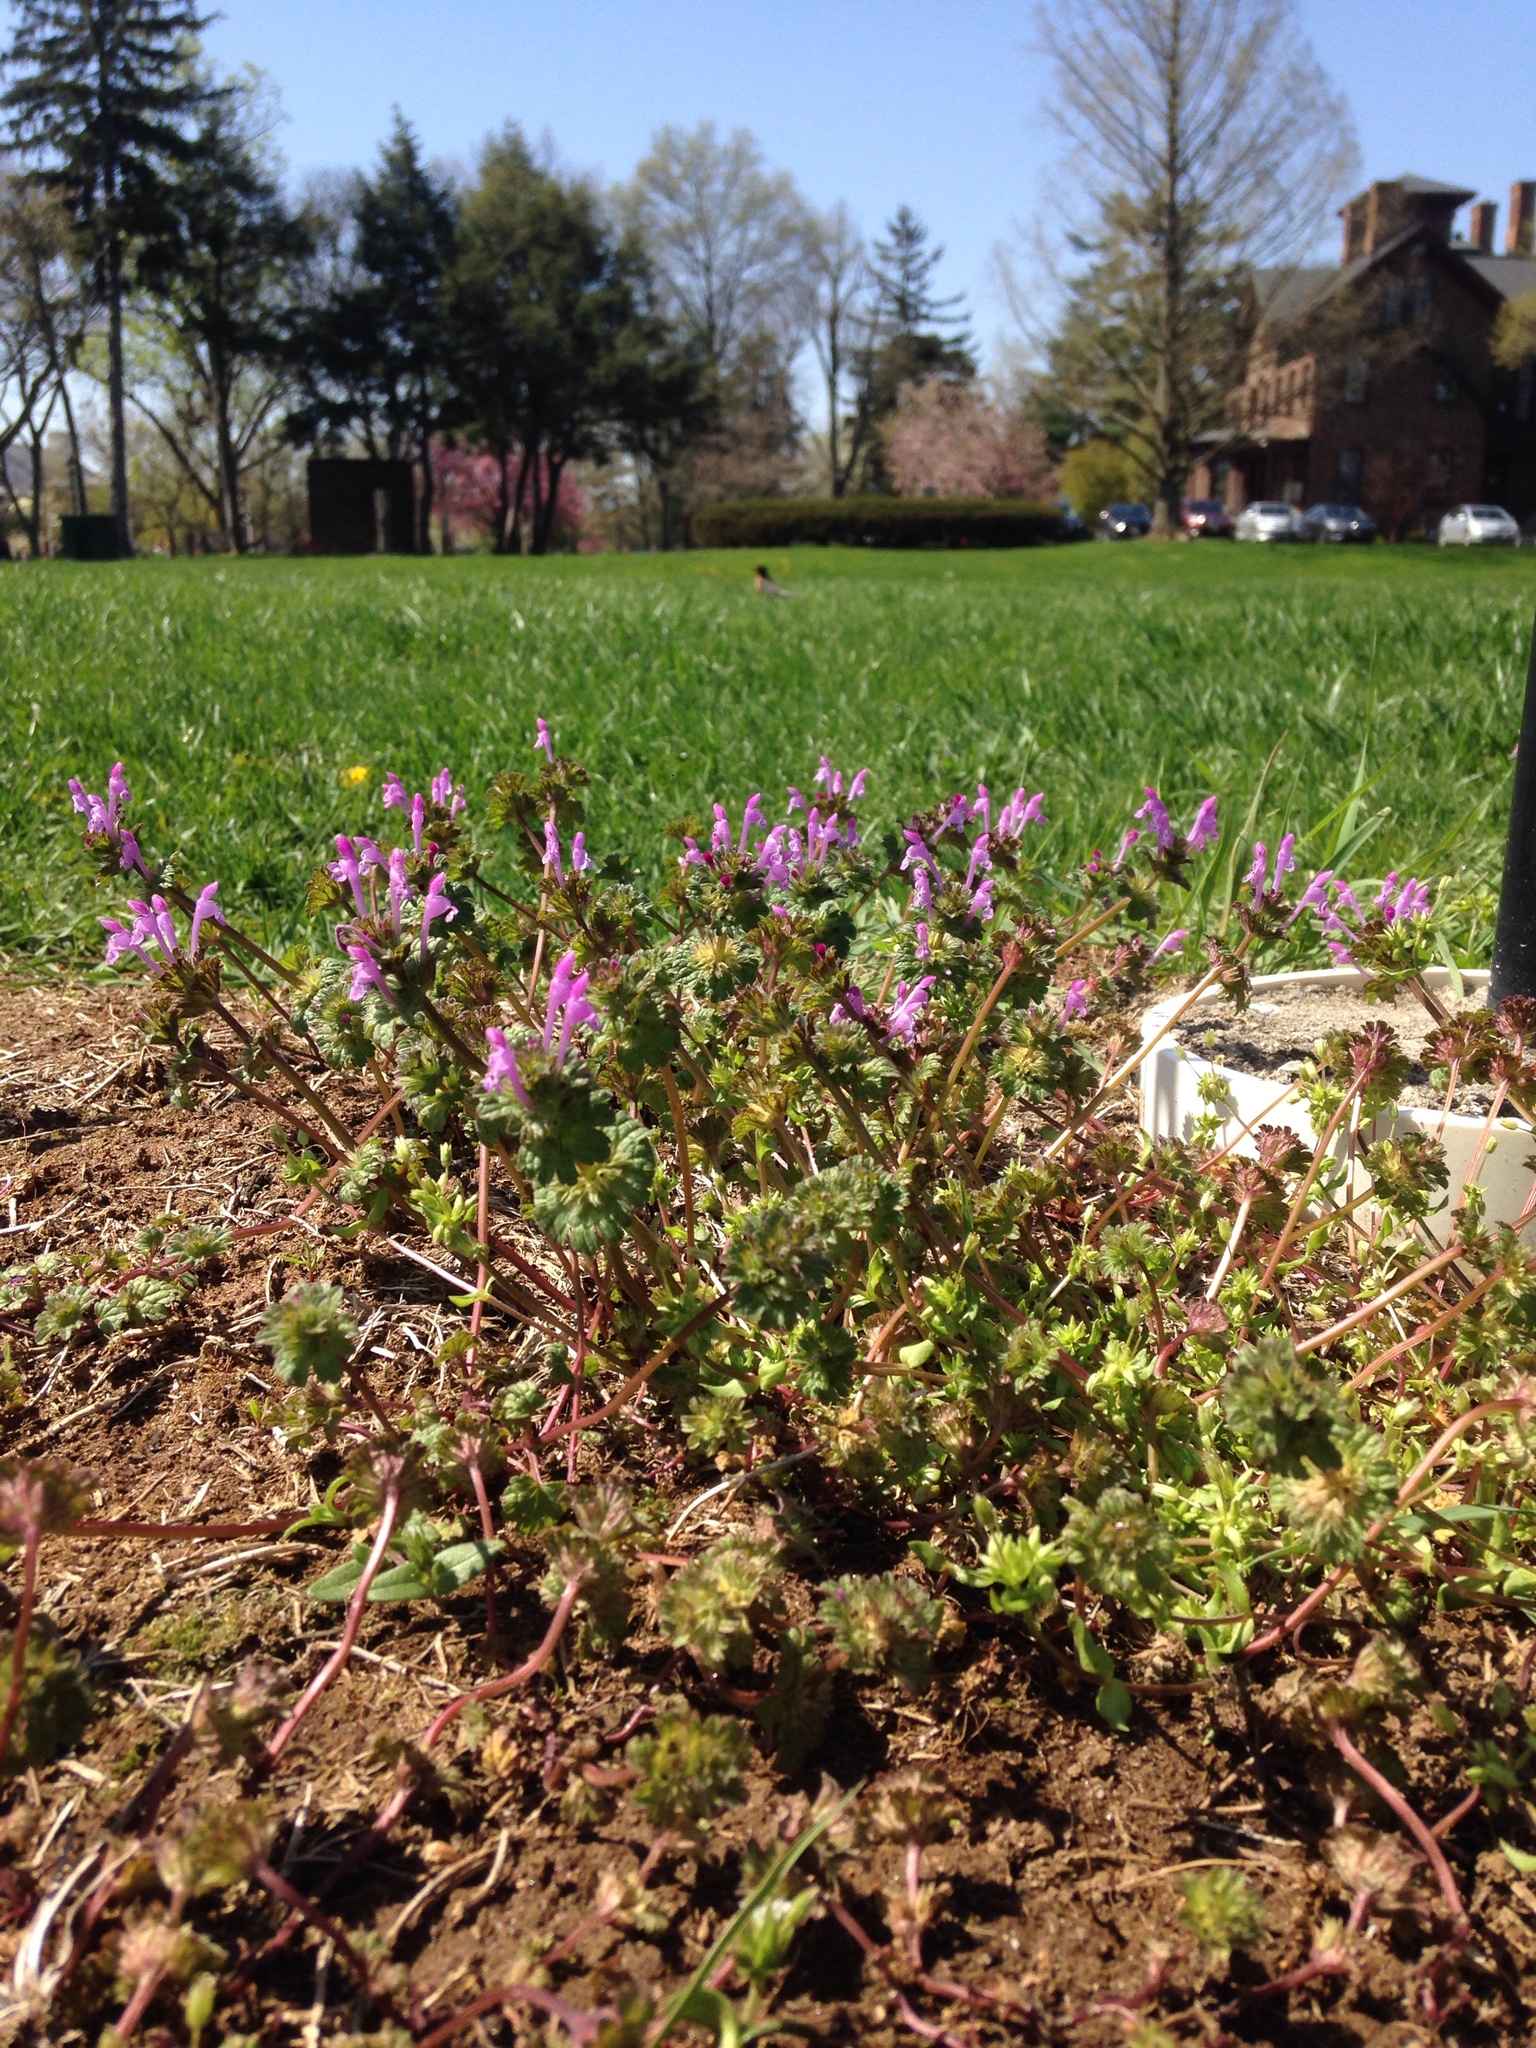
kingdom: Plantae
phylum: Tracheophyta
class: Magnoliopsida
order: Lamiales
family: Lamiaceae
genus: Lamium
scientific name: Lamium amplexicaule
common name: Henbit dead-nettle
